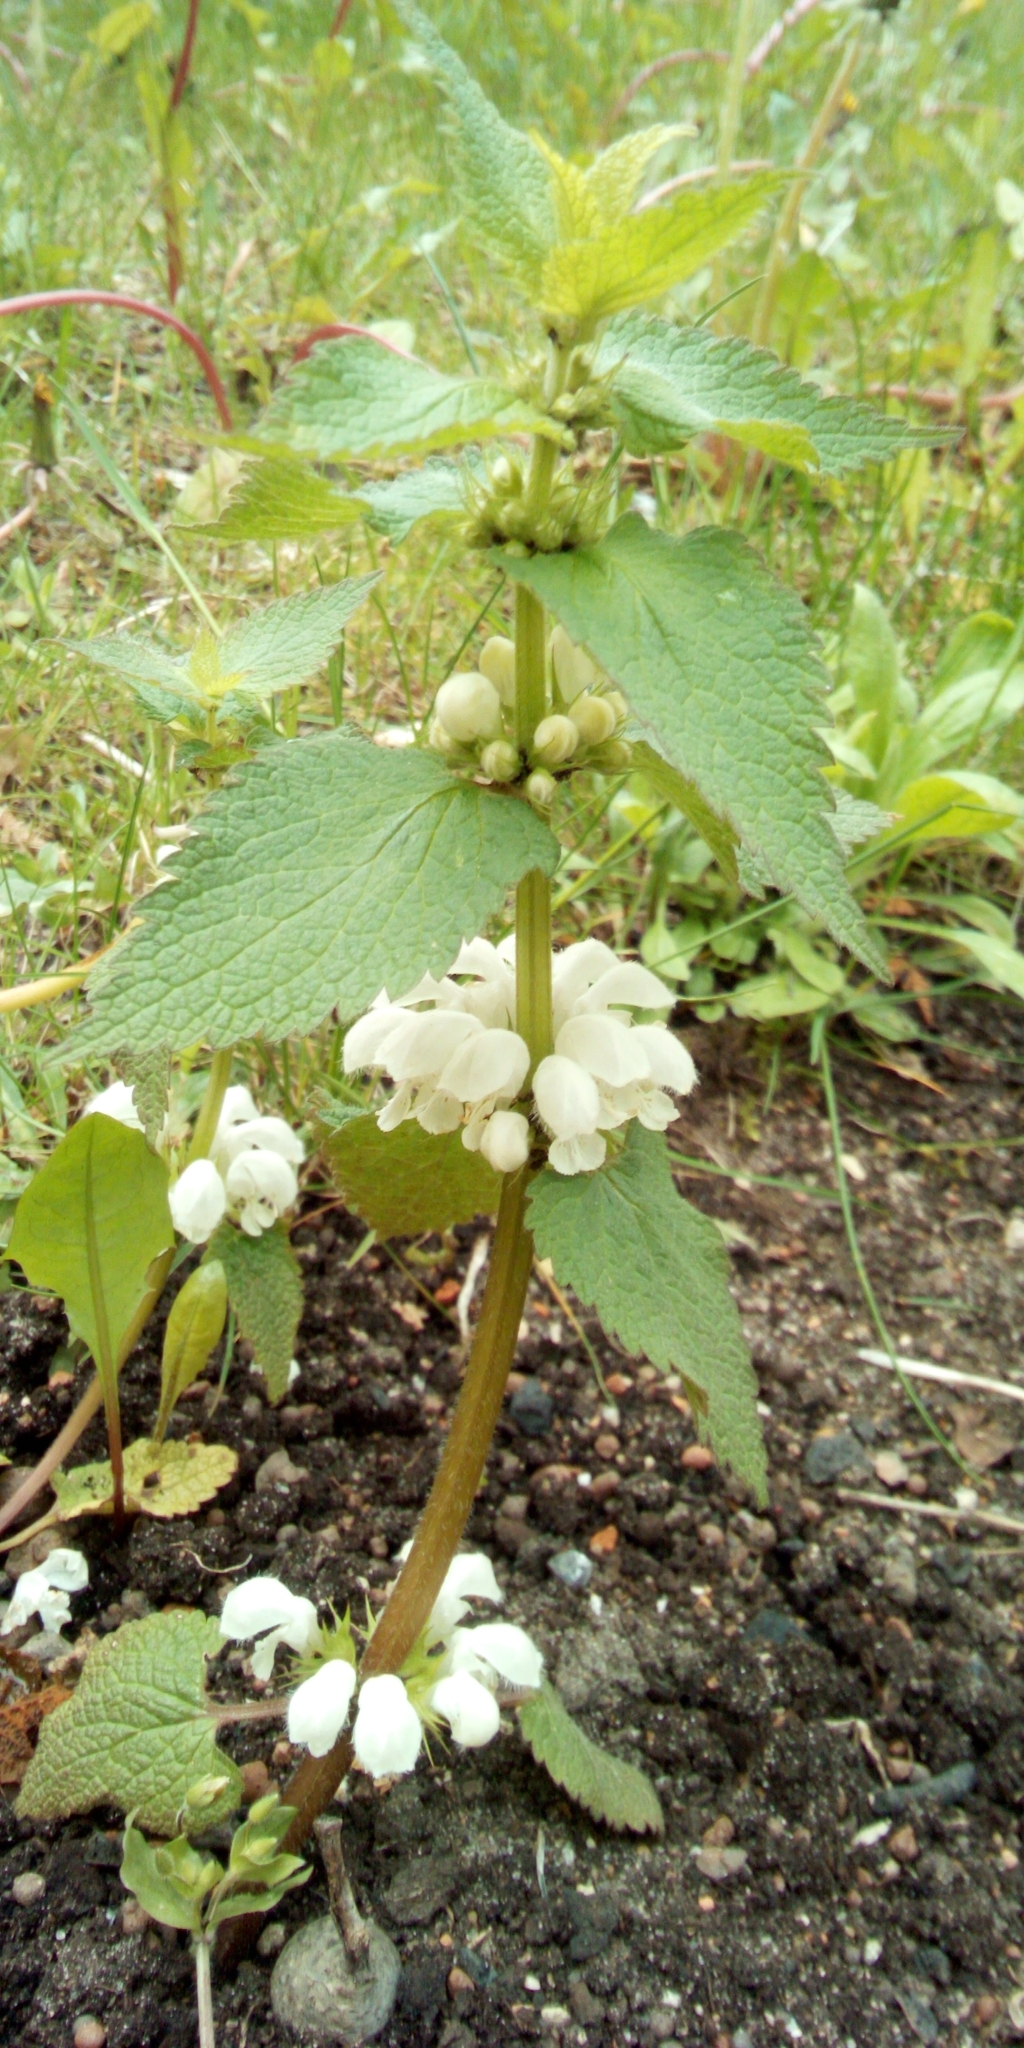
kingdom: Plantae
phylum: Tracheophyta
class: Magnoliopsida
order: Lamiales
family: Lamiaceae
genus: Lamium
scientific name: Lamium album
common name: White dead-nettle
